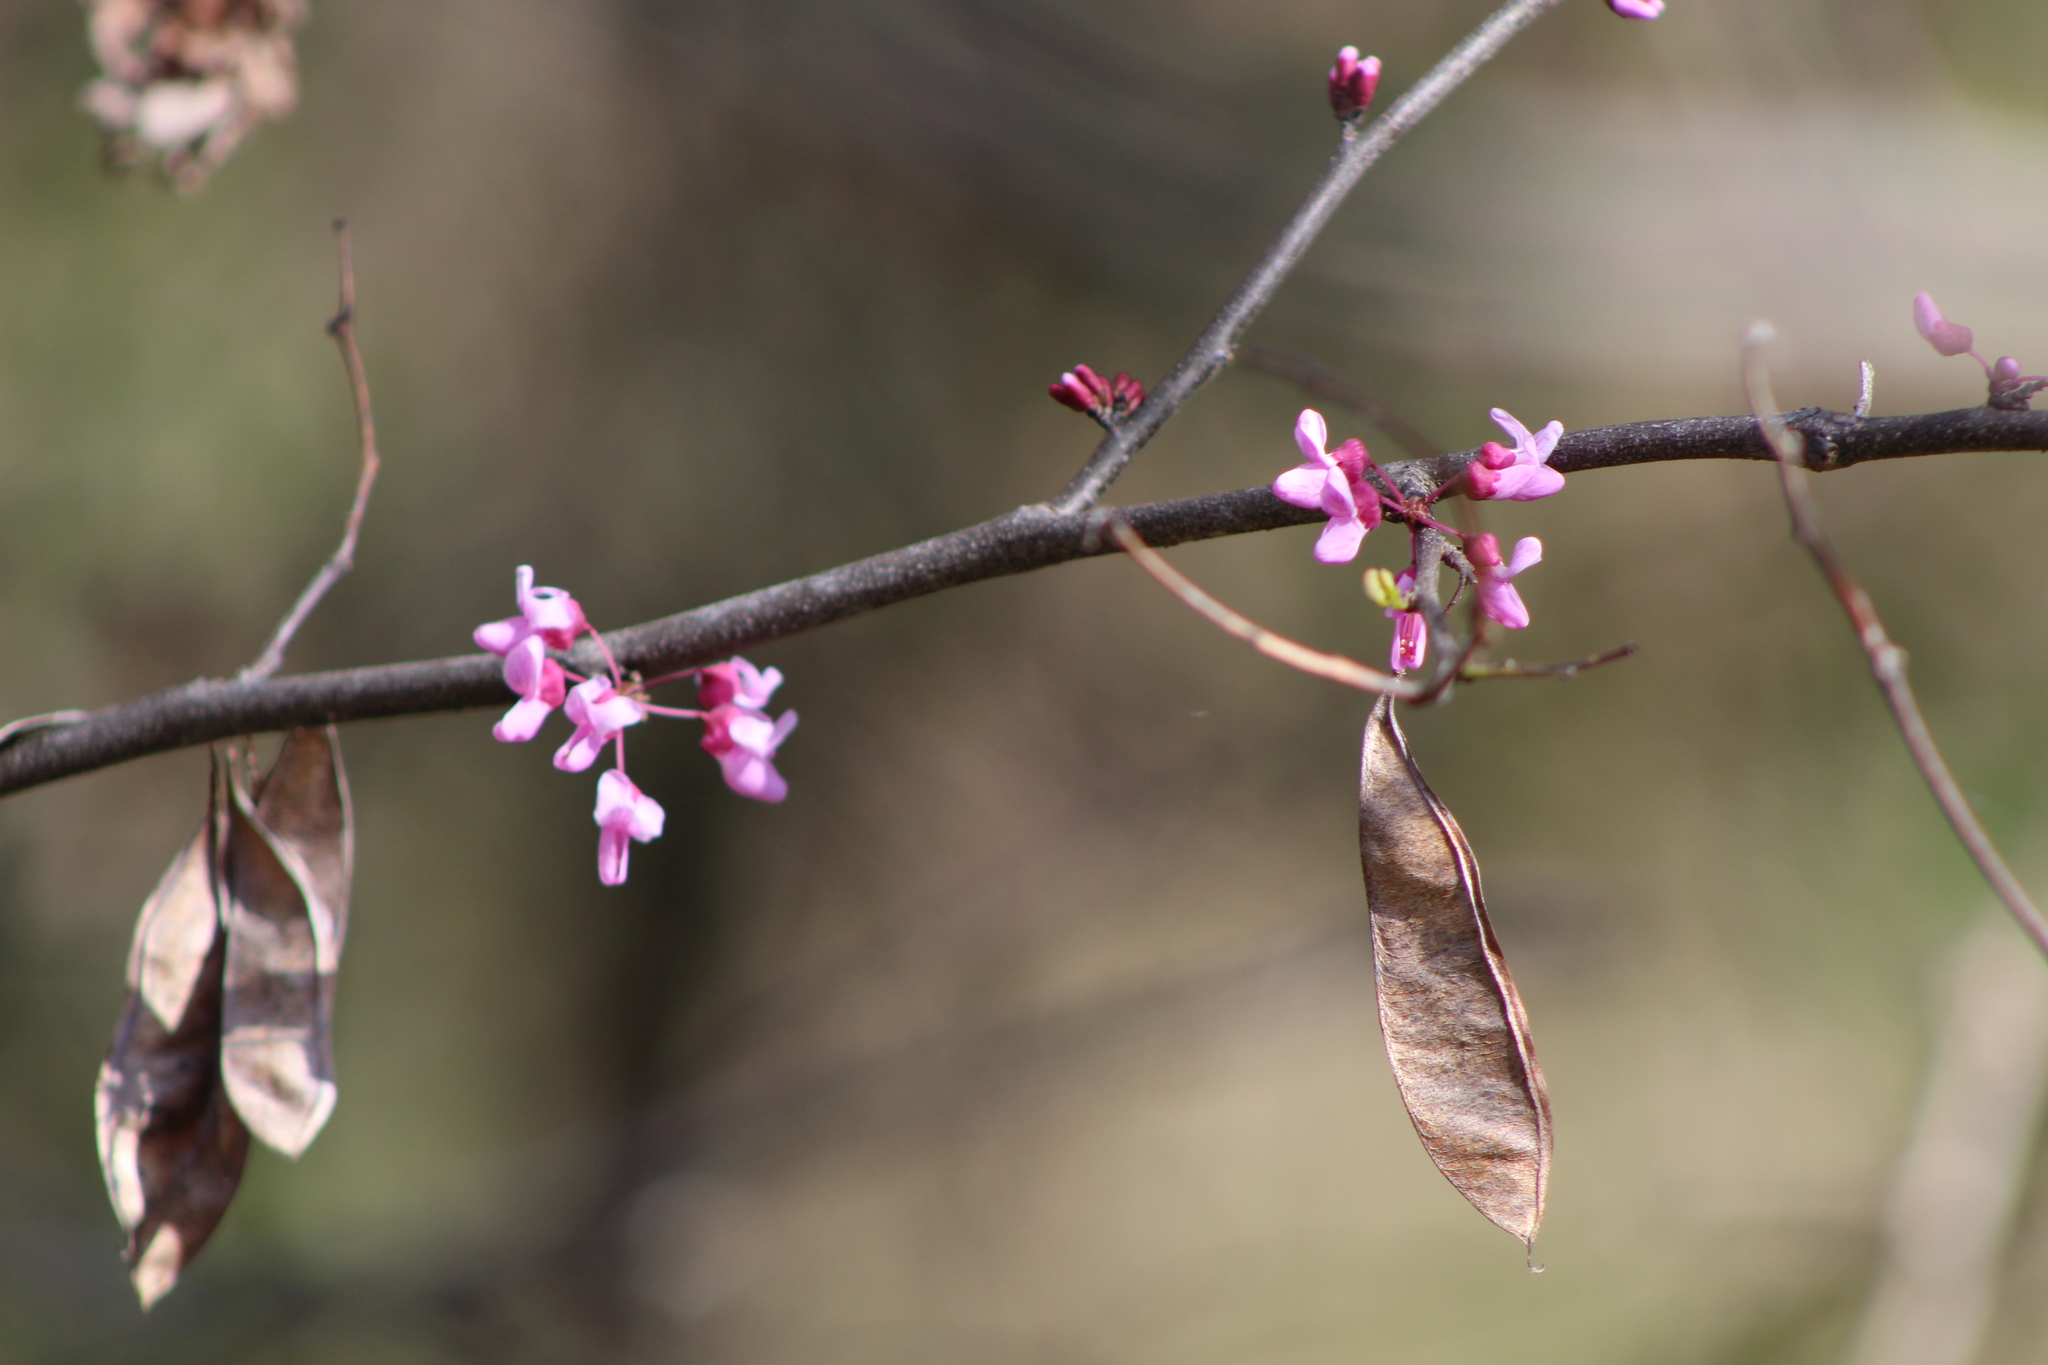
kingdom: Plantae
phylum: Tracheophyta
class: Magnoliopsida
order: Fabales
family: Fabaceae
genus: Cercis
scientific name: Cercis canadensis
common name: Eastern redbud
